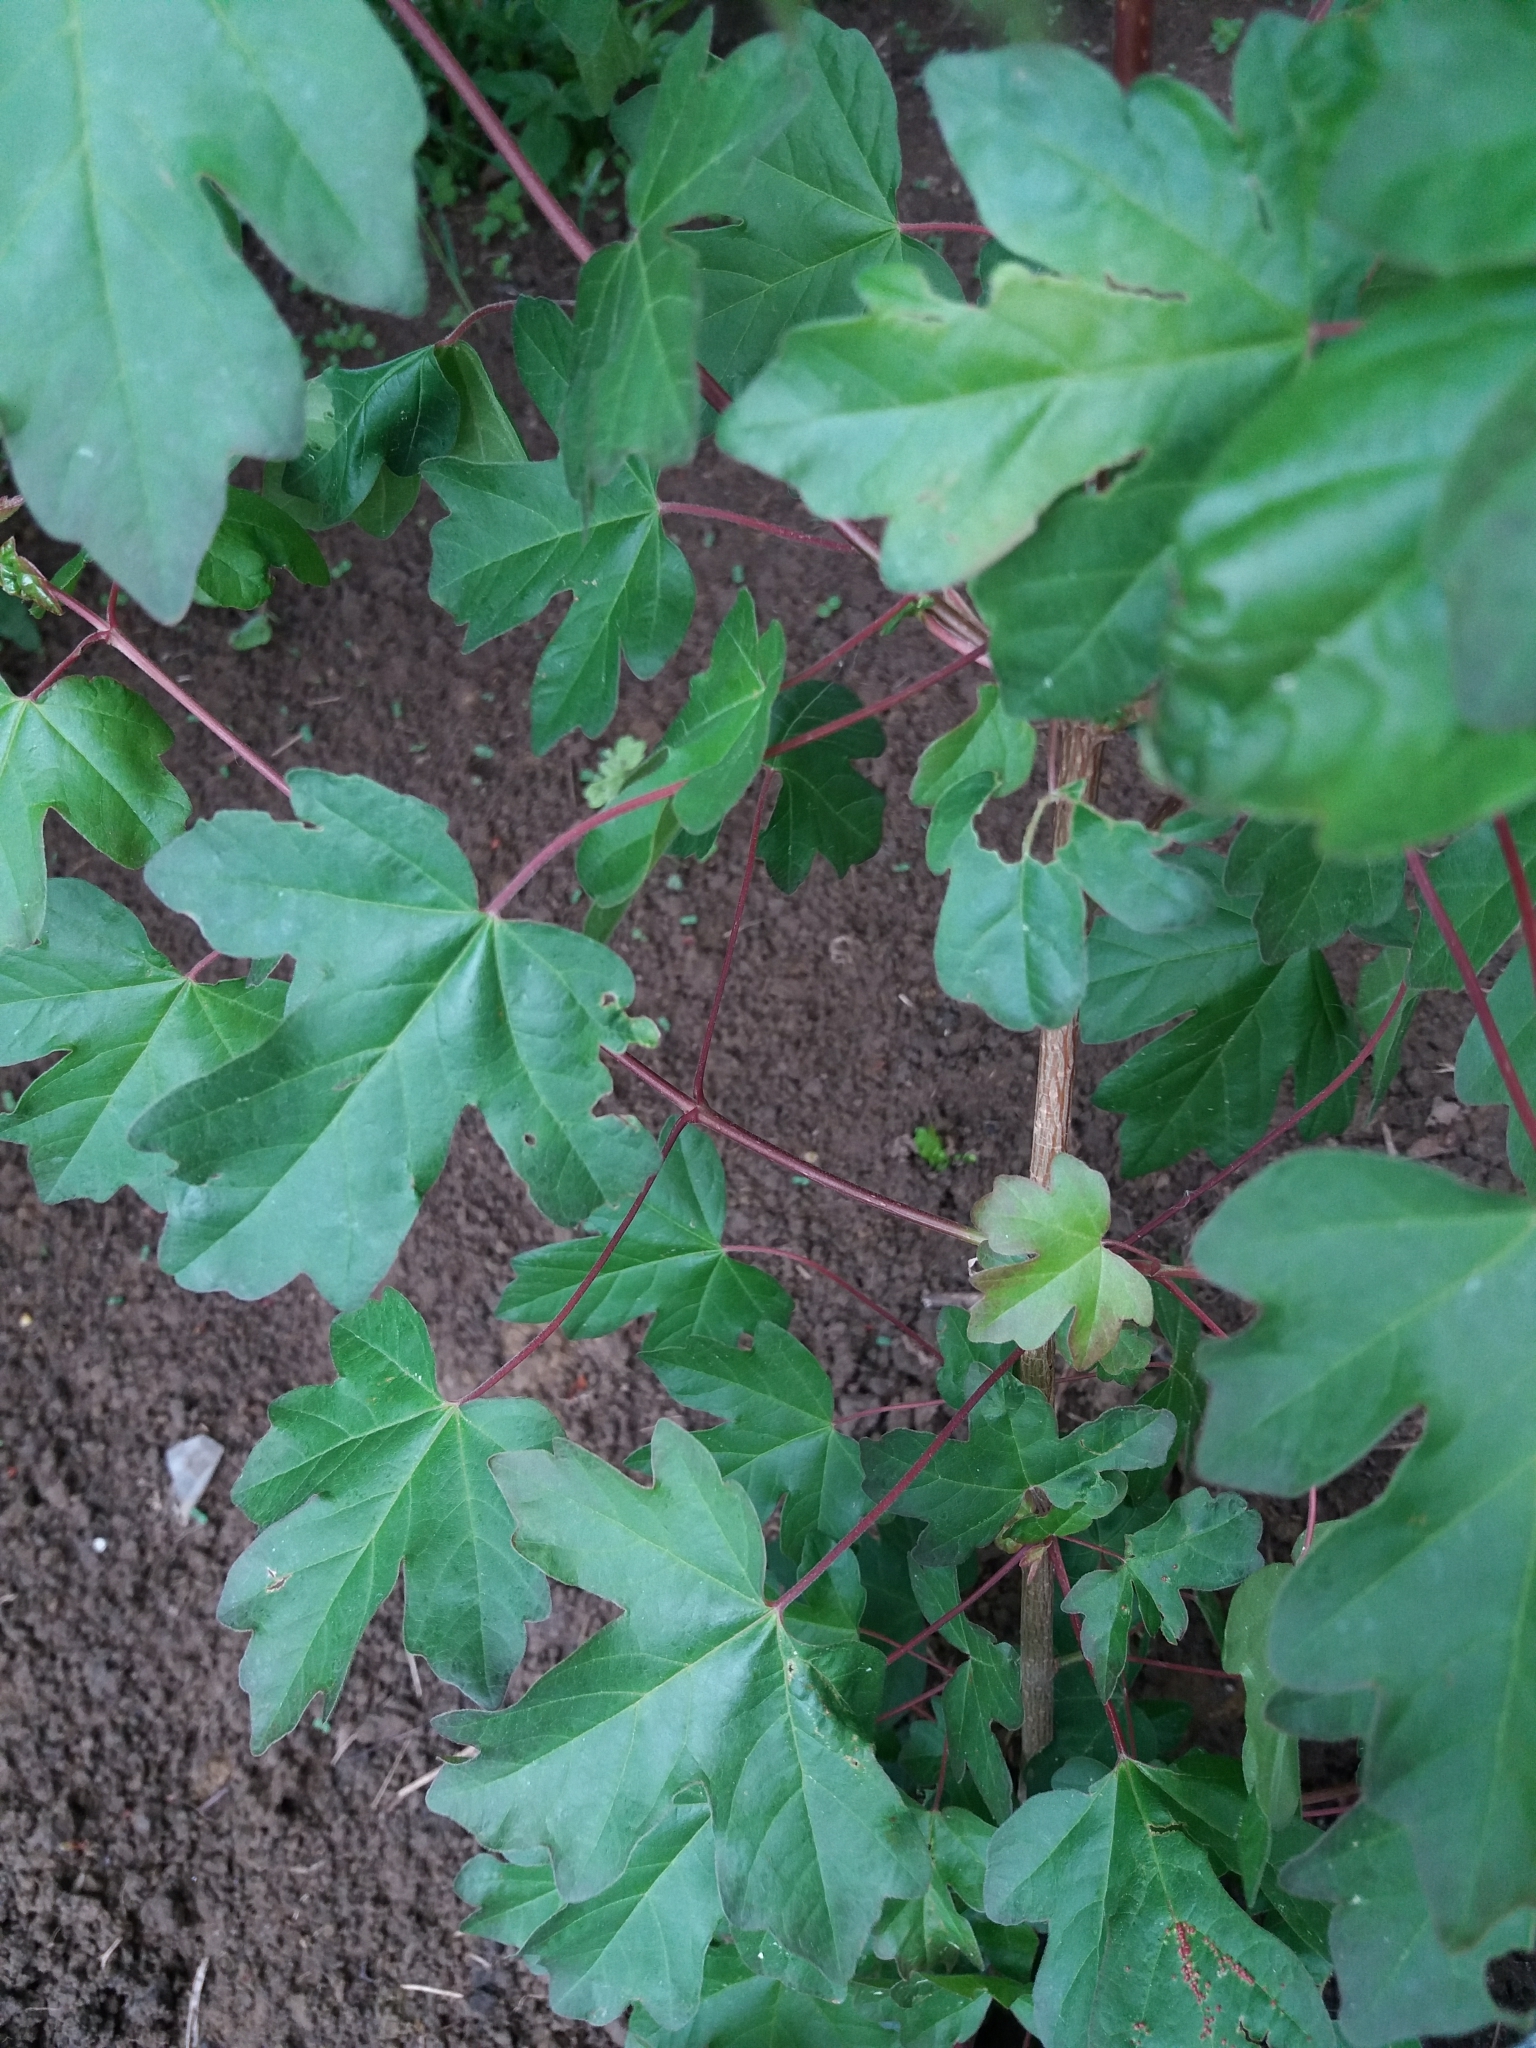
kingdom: Plantae
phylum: Tracheophyta
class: Magnoliopsida
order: Sapindales
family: Sapindaceae
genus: Acer
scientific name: Acer campestre
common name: Field maple
